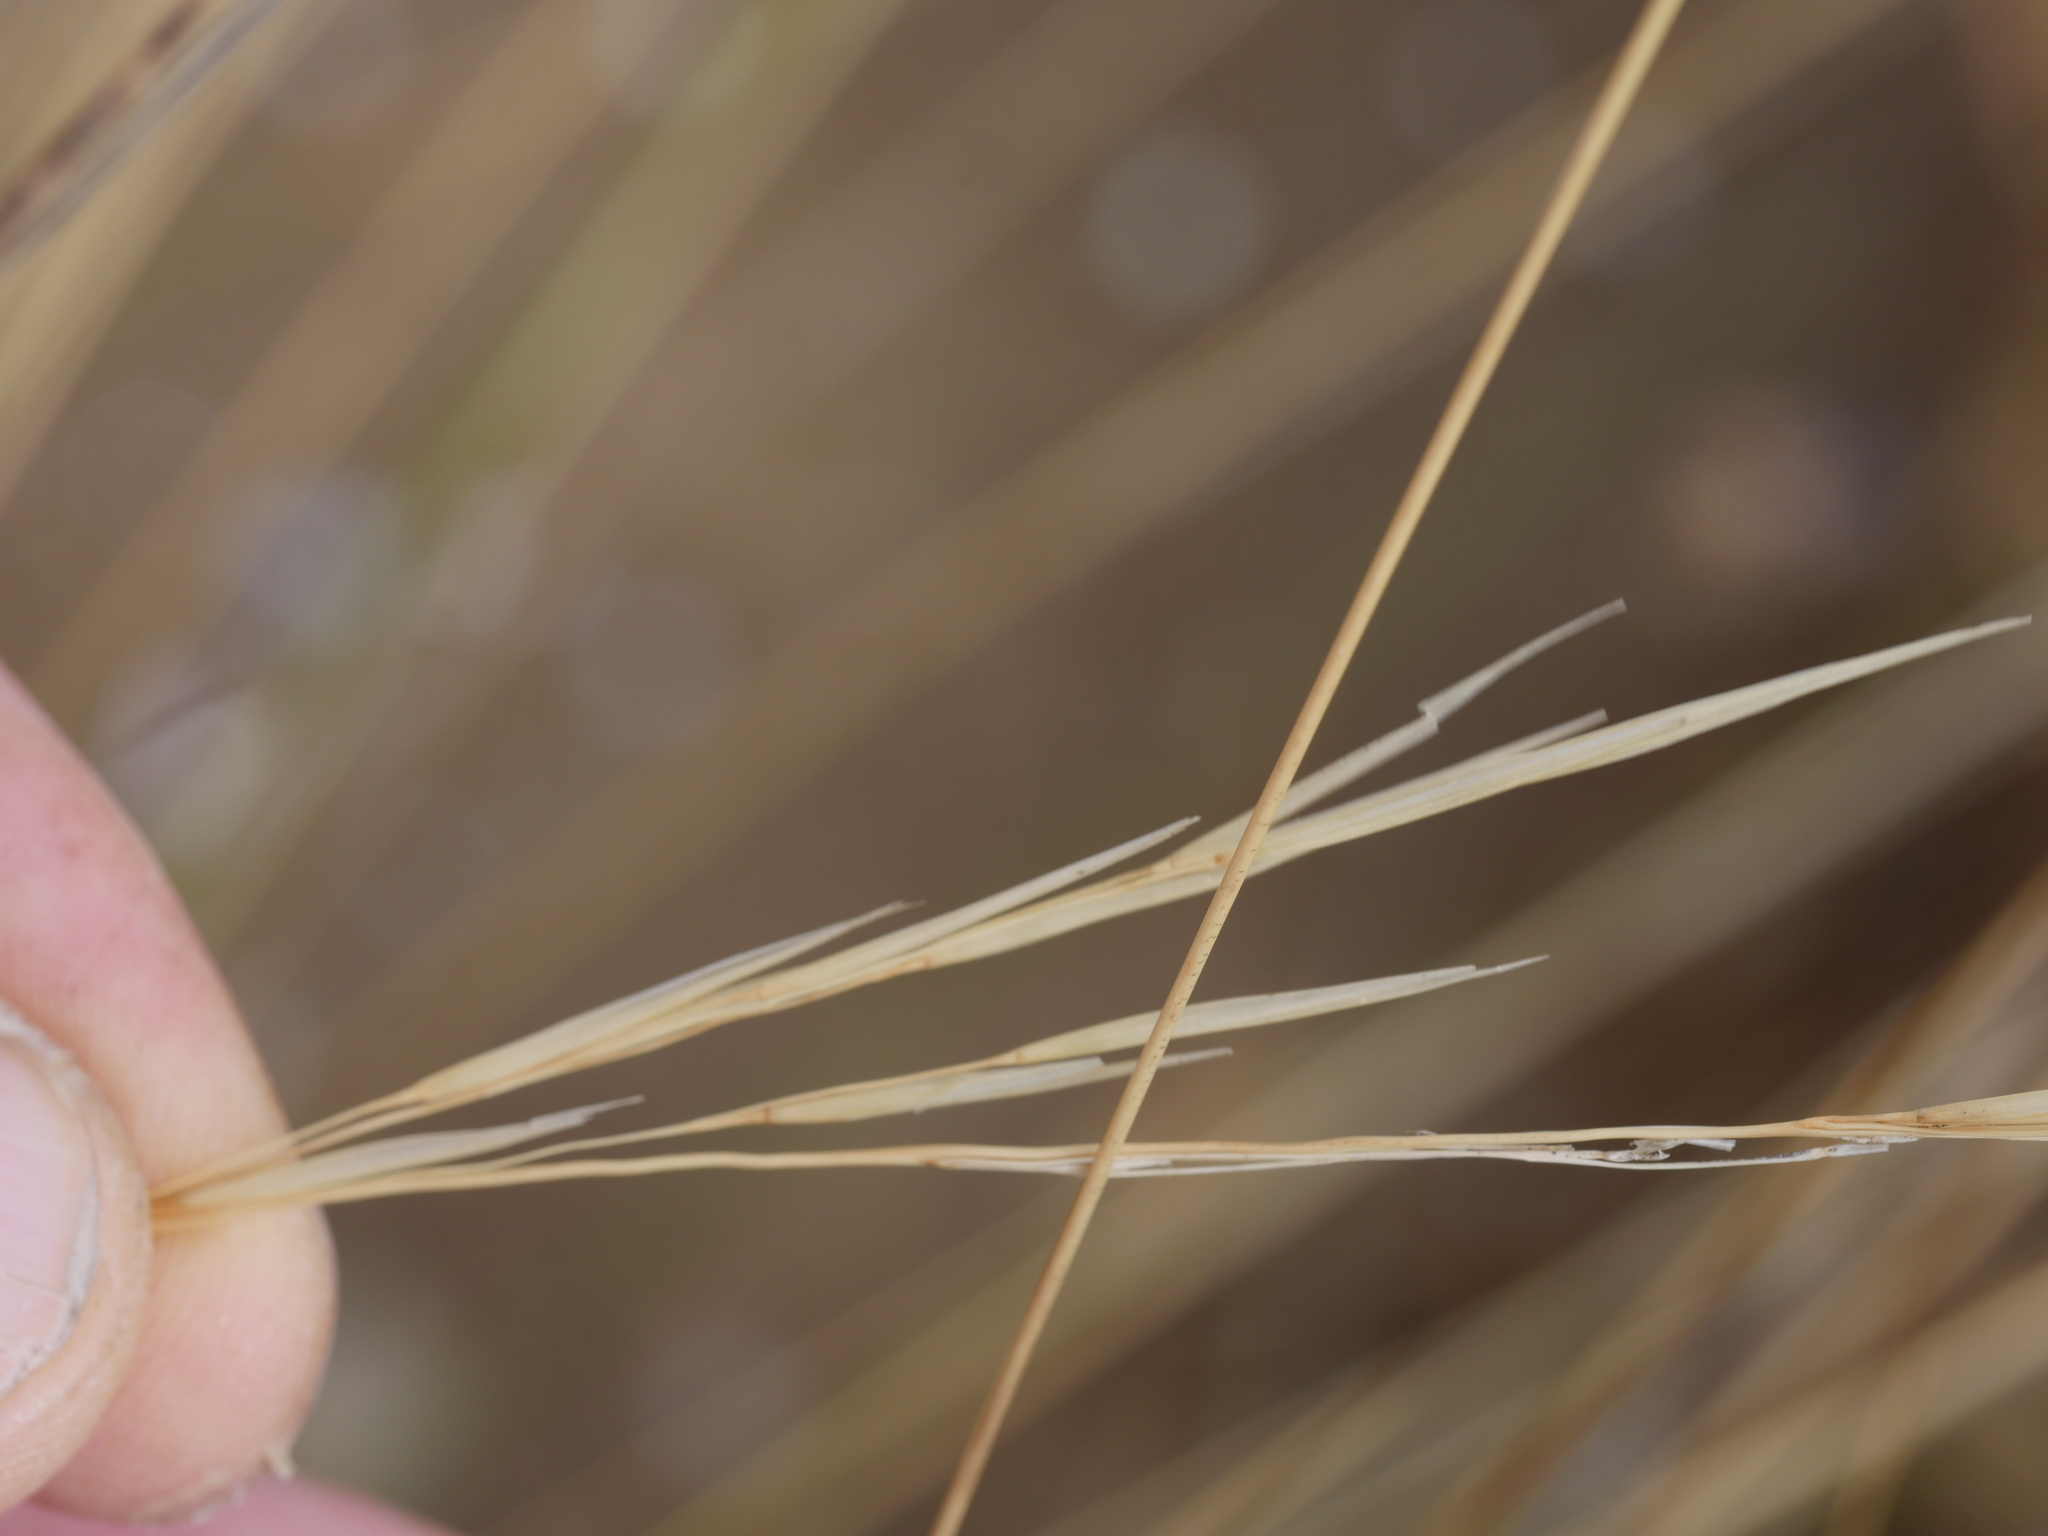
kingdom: Plantae
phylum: Tracheophyta
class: Liliopsida
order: Poales
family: Poaceae
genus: Austrostipa
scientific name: Austrostipa stipoides
